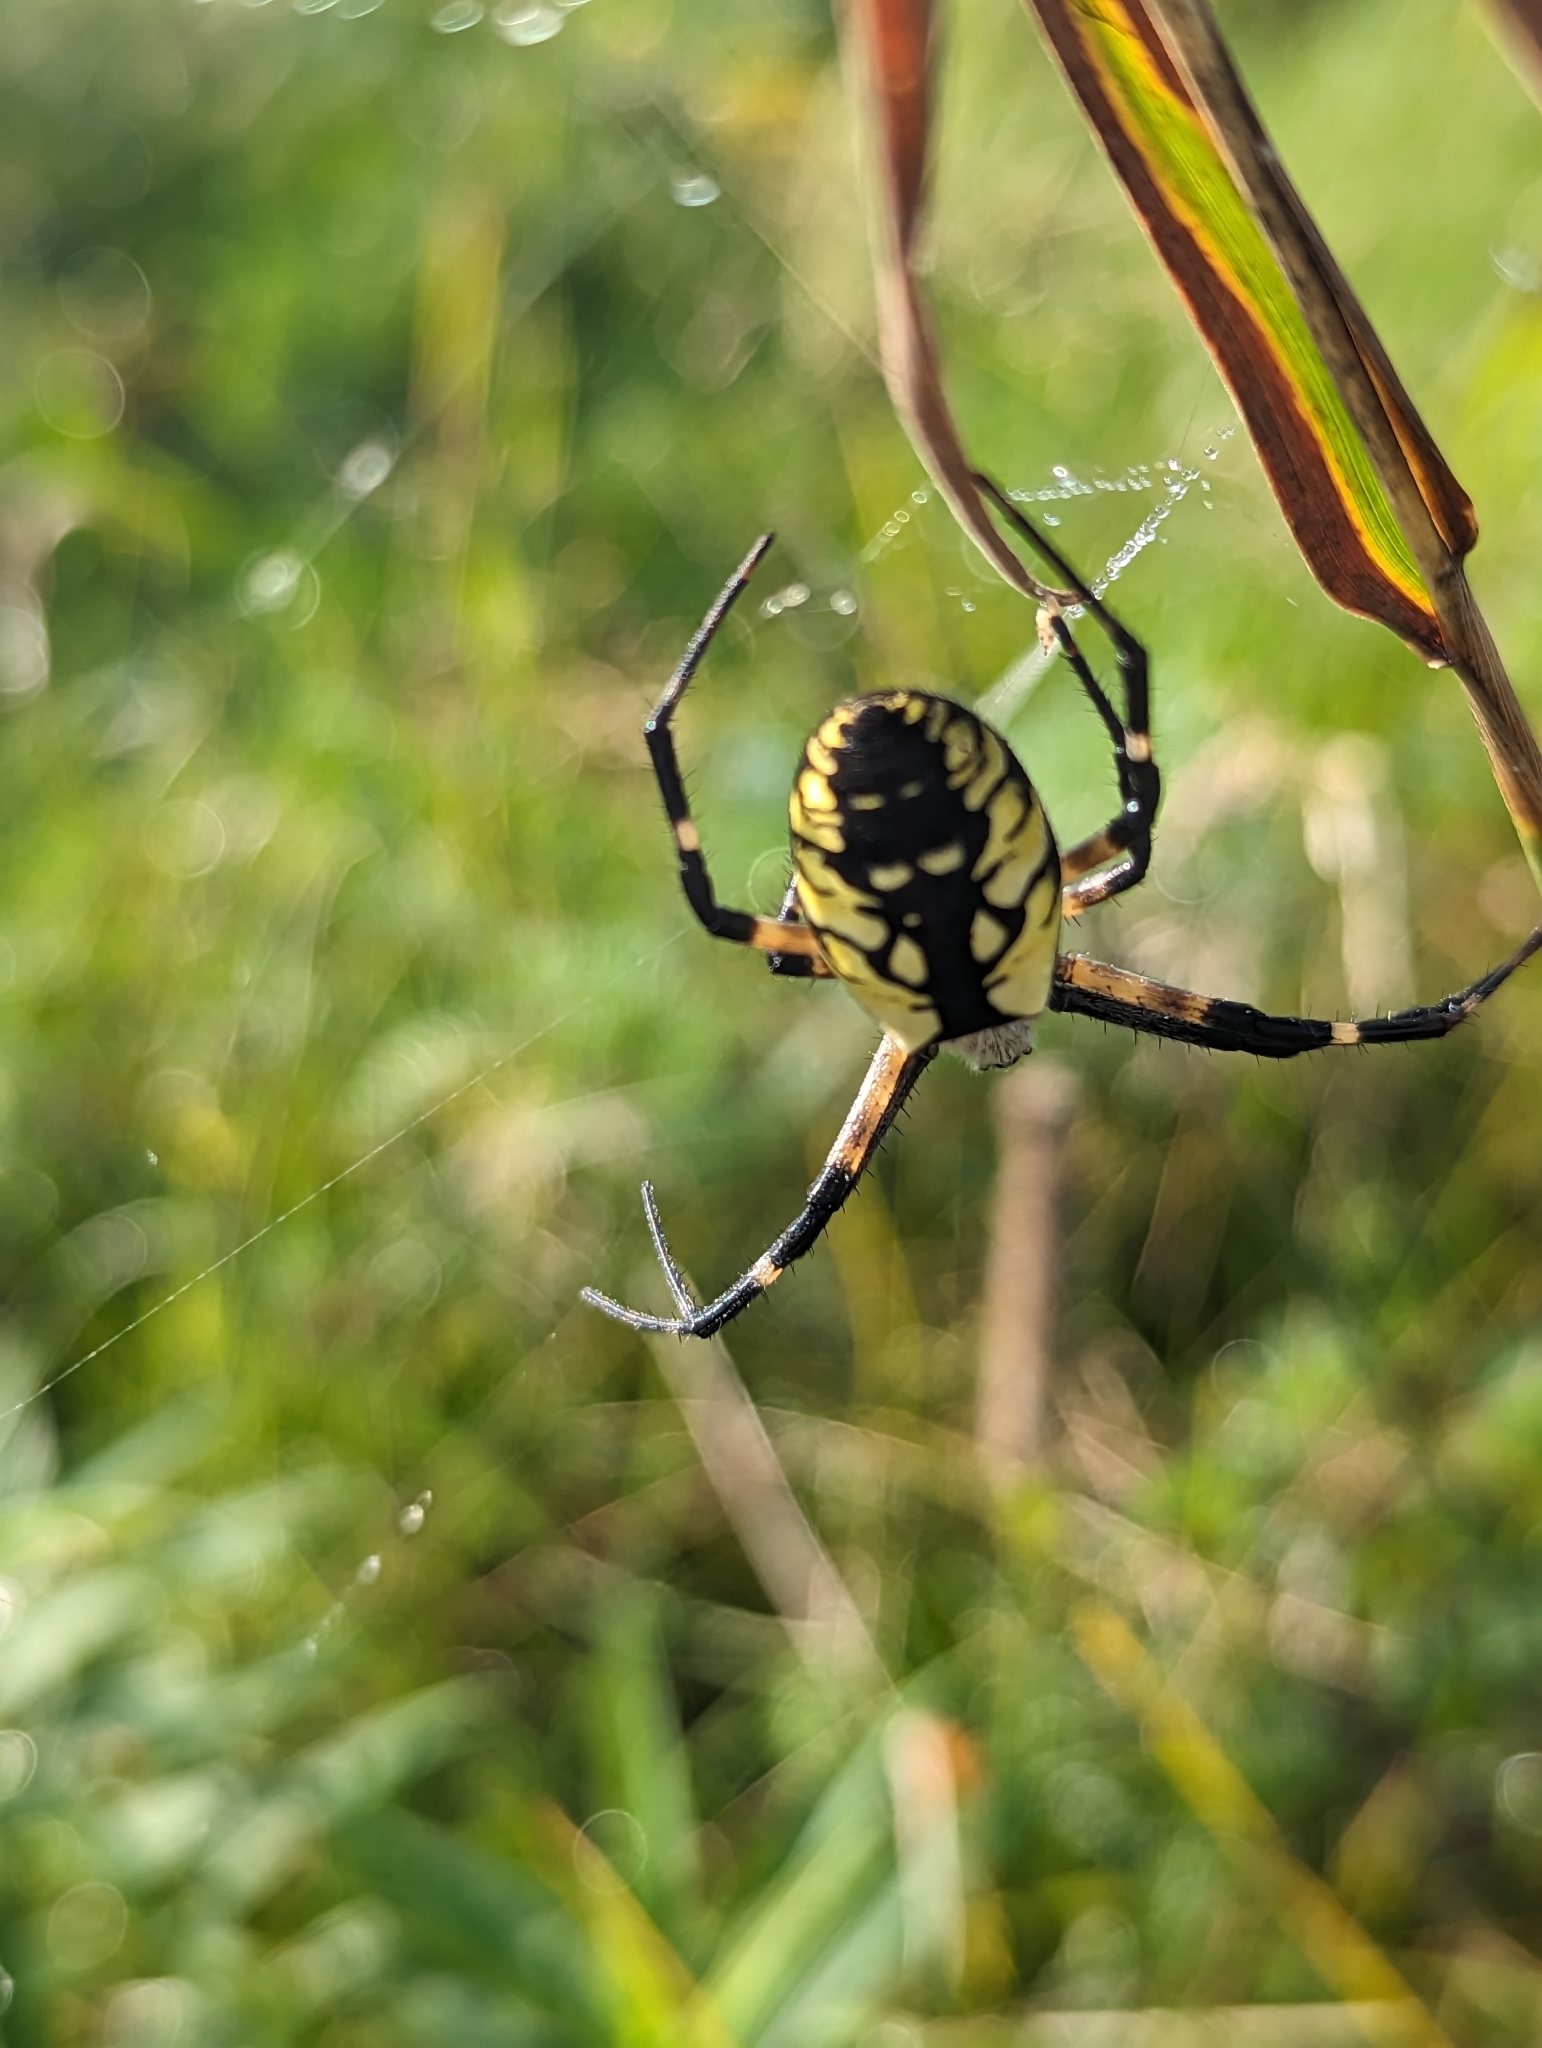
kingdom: Animalia
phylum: Arthropoda
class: Arachnida
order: Araneae
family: Araneidae
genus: Argiope
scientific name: Argiope aurantia
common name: Orb weavers
